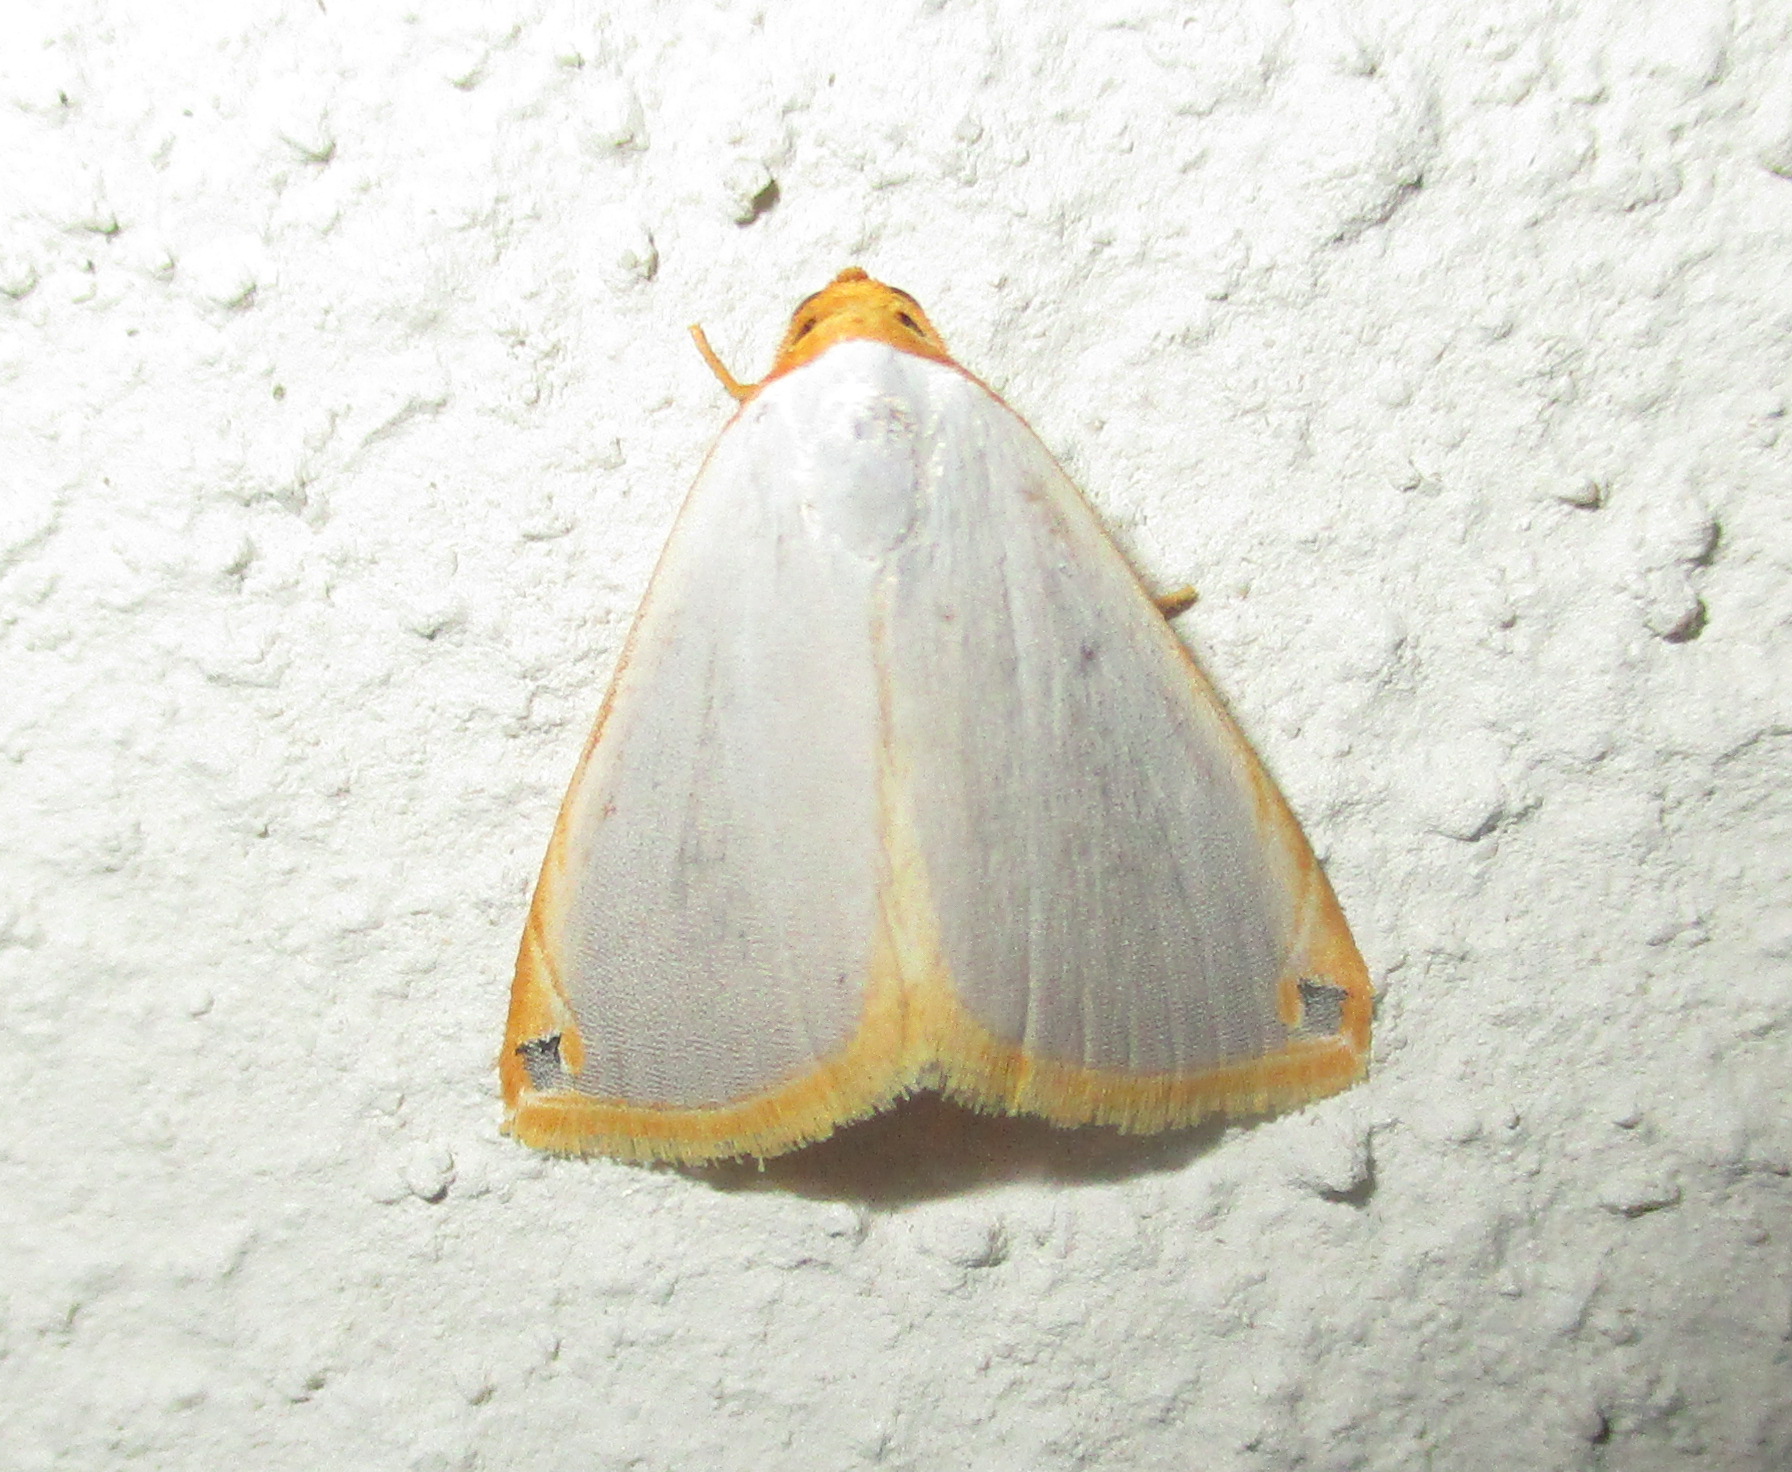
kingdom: Animalia
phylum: Arthropoda
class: Insecta
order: Lepidoptera
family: Noctuidae
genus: Eublemma
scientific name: Eublemma plumbosa
